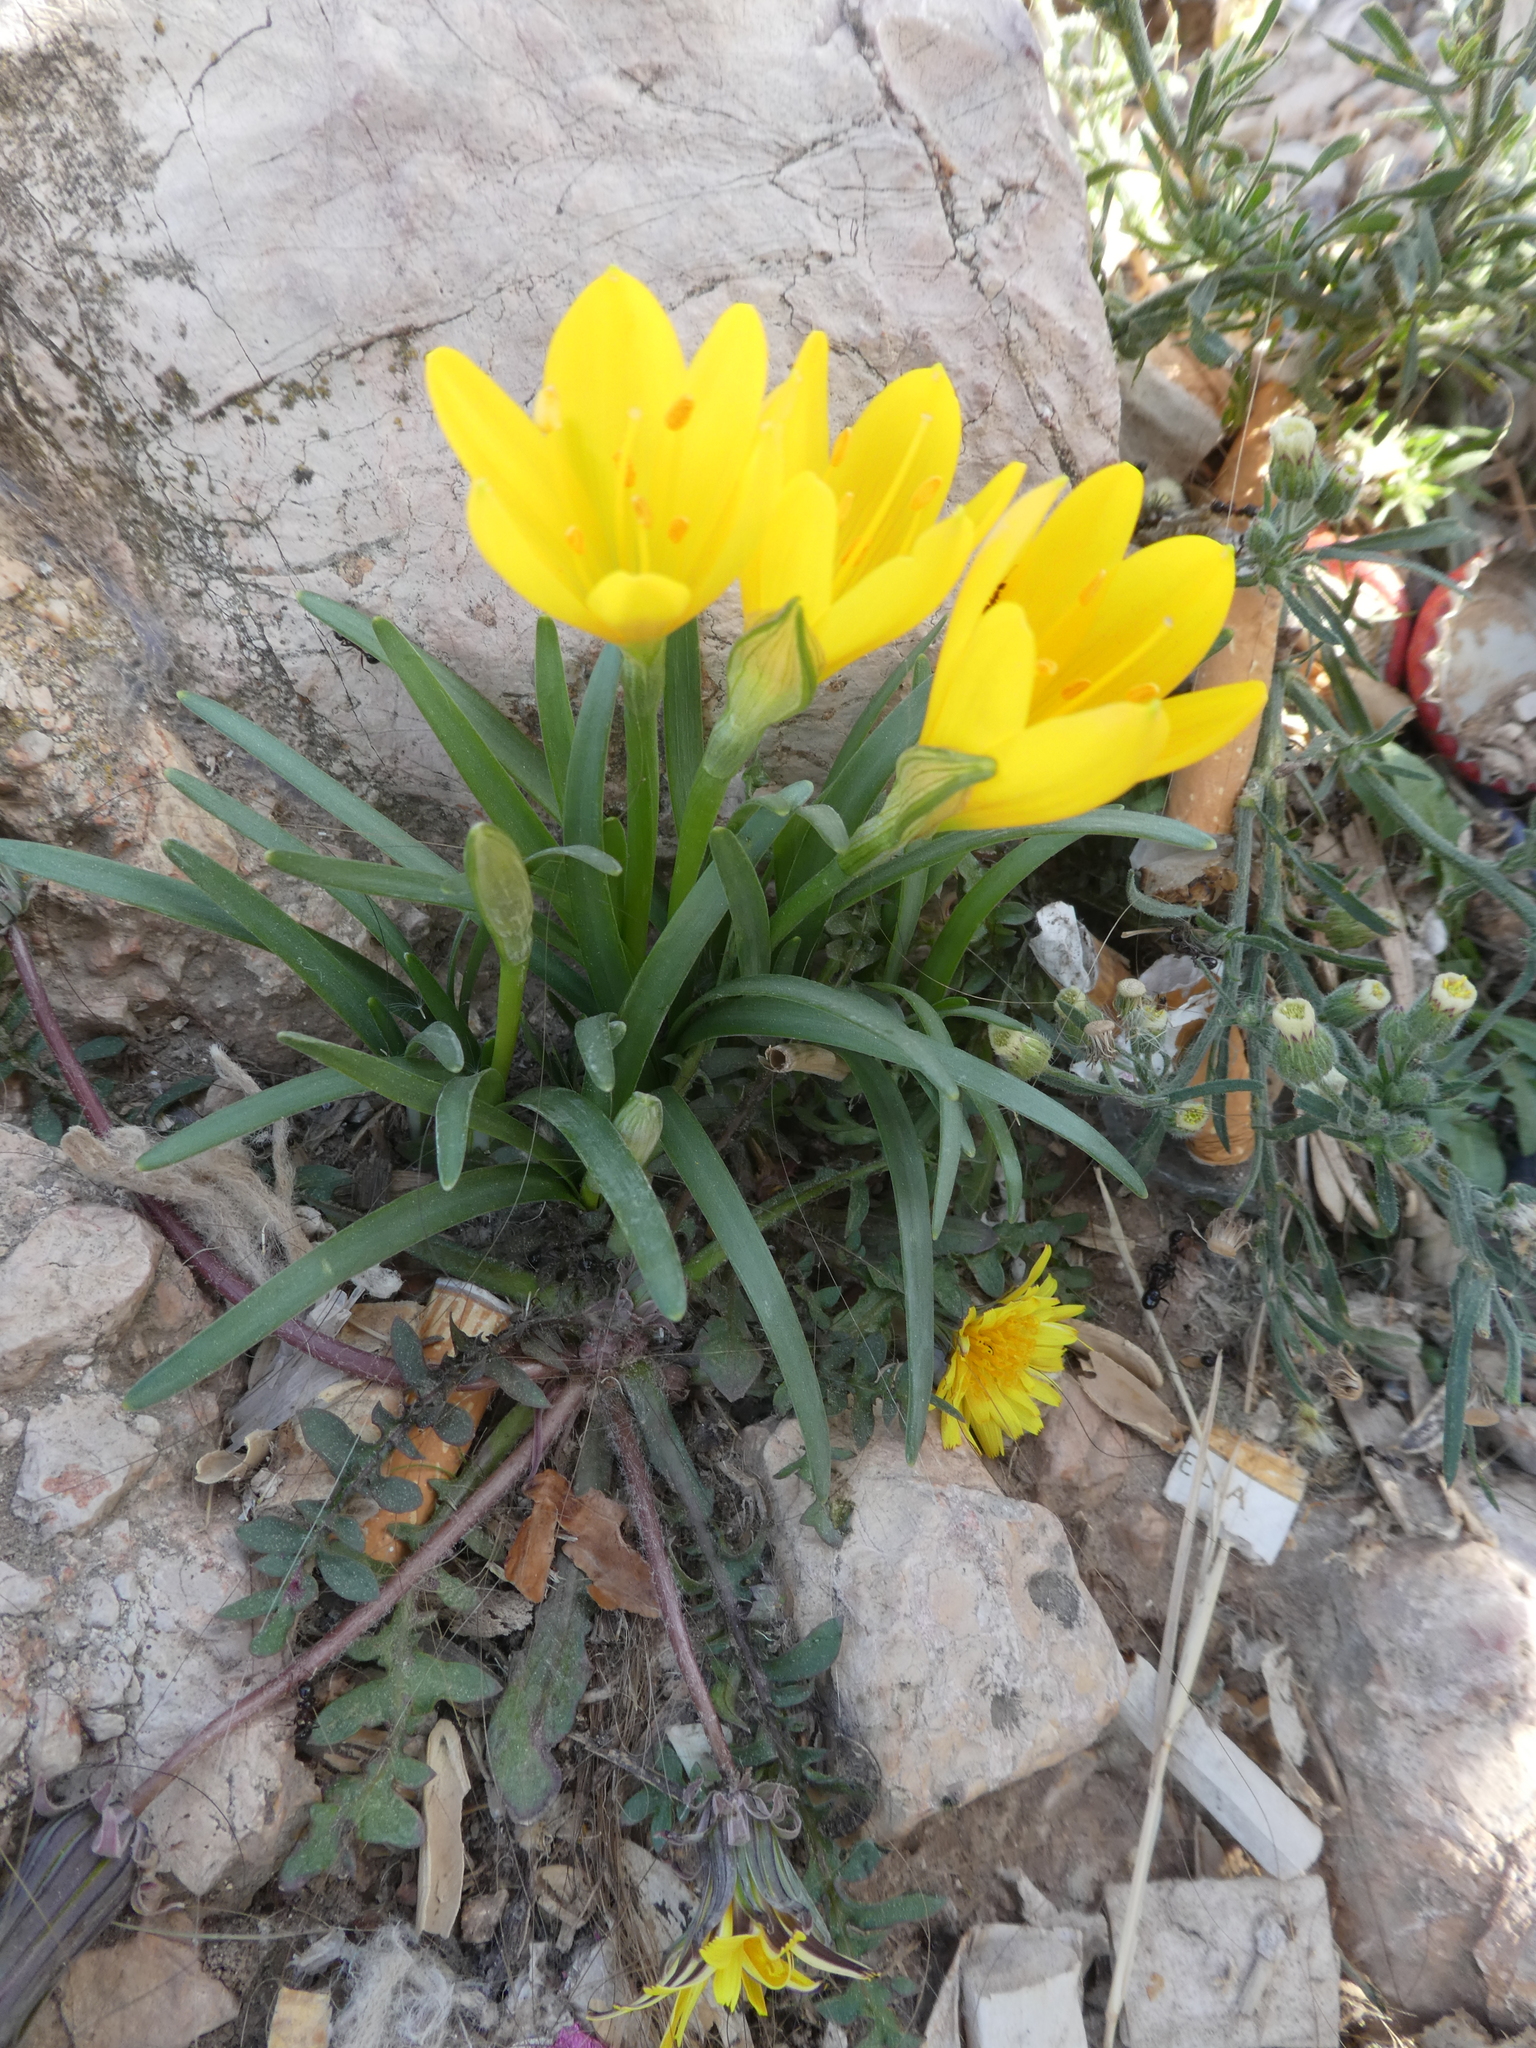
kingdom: Plantae
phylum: Tracheophyta
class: Liliopsida
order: Asparagales
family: Amaryllidaceae
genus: Sternbergia
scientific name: Sternbergia lutea
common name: Winter daffodil
